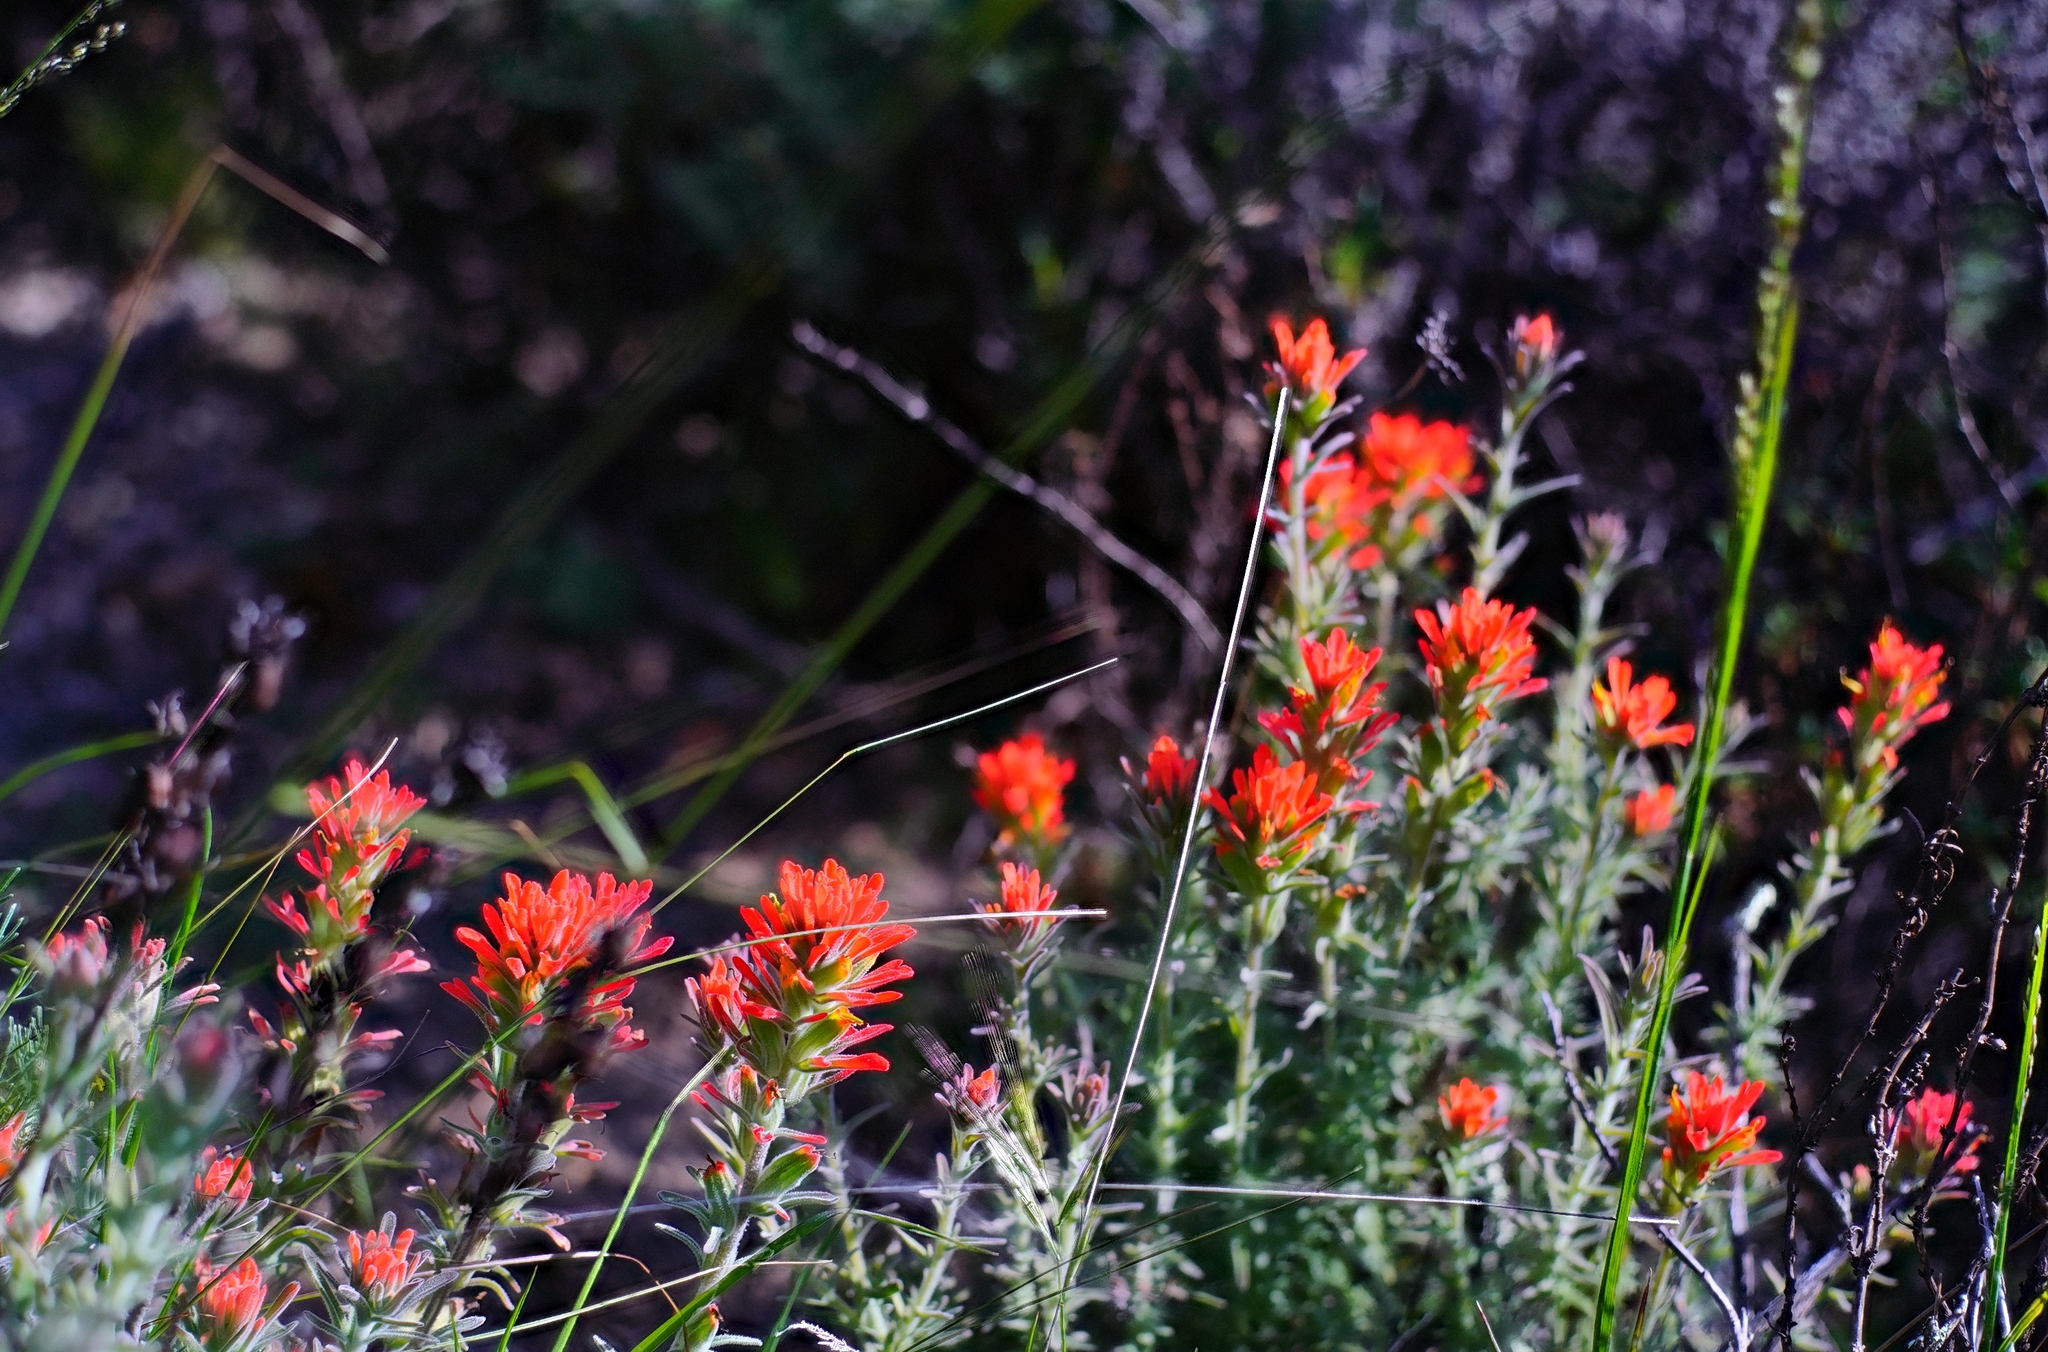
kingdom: Plantae
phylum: Tracheophyta
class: Magnoliopsida
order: Lamiales
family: Orobanchaceae
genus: Castilleja
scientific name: Castilleja foliolosa
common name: Woolly indian paintbrush
